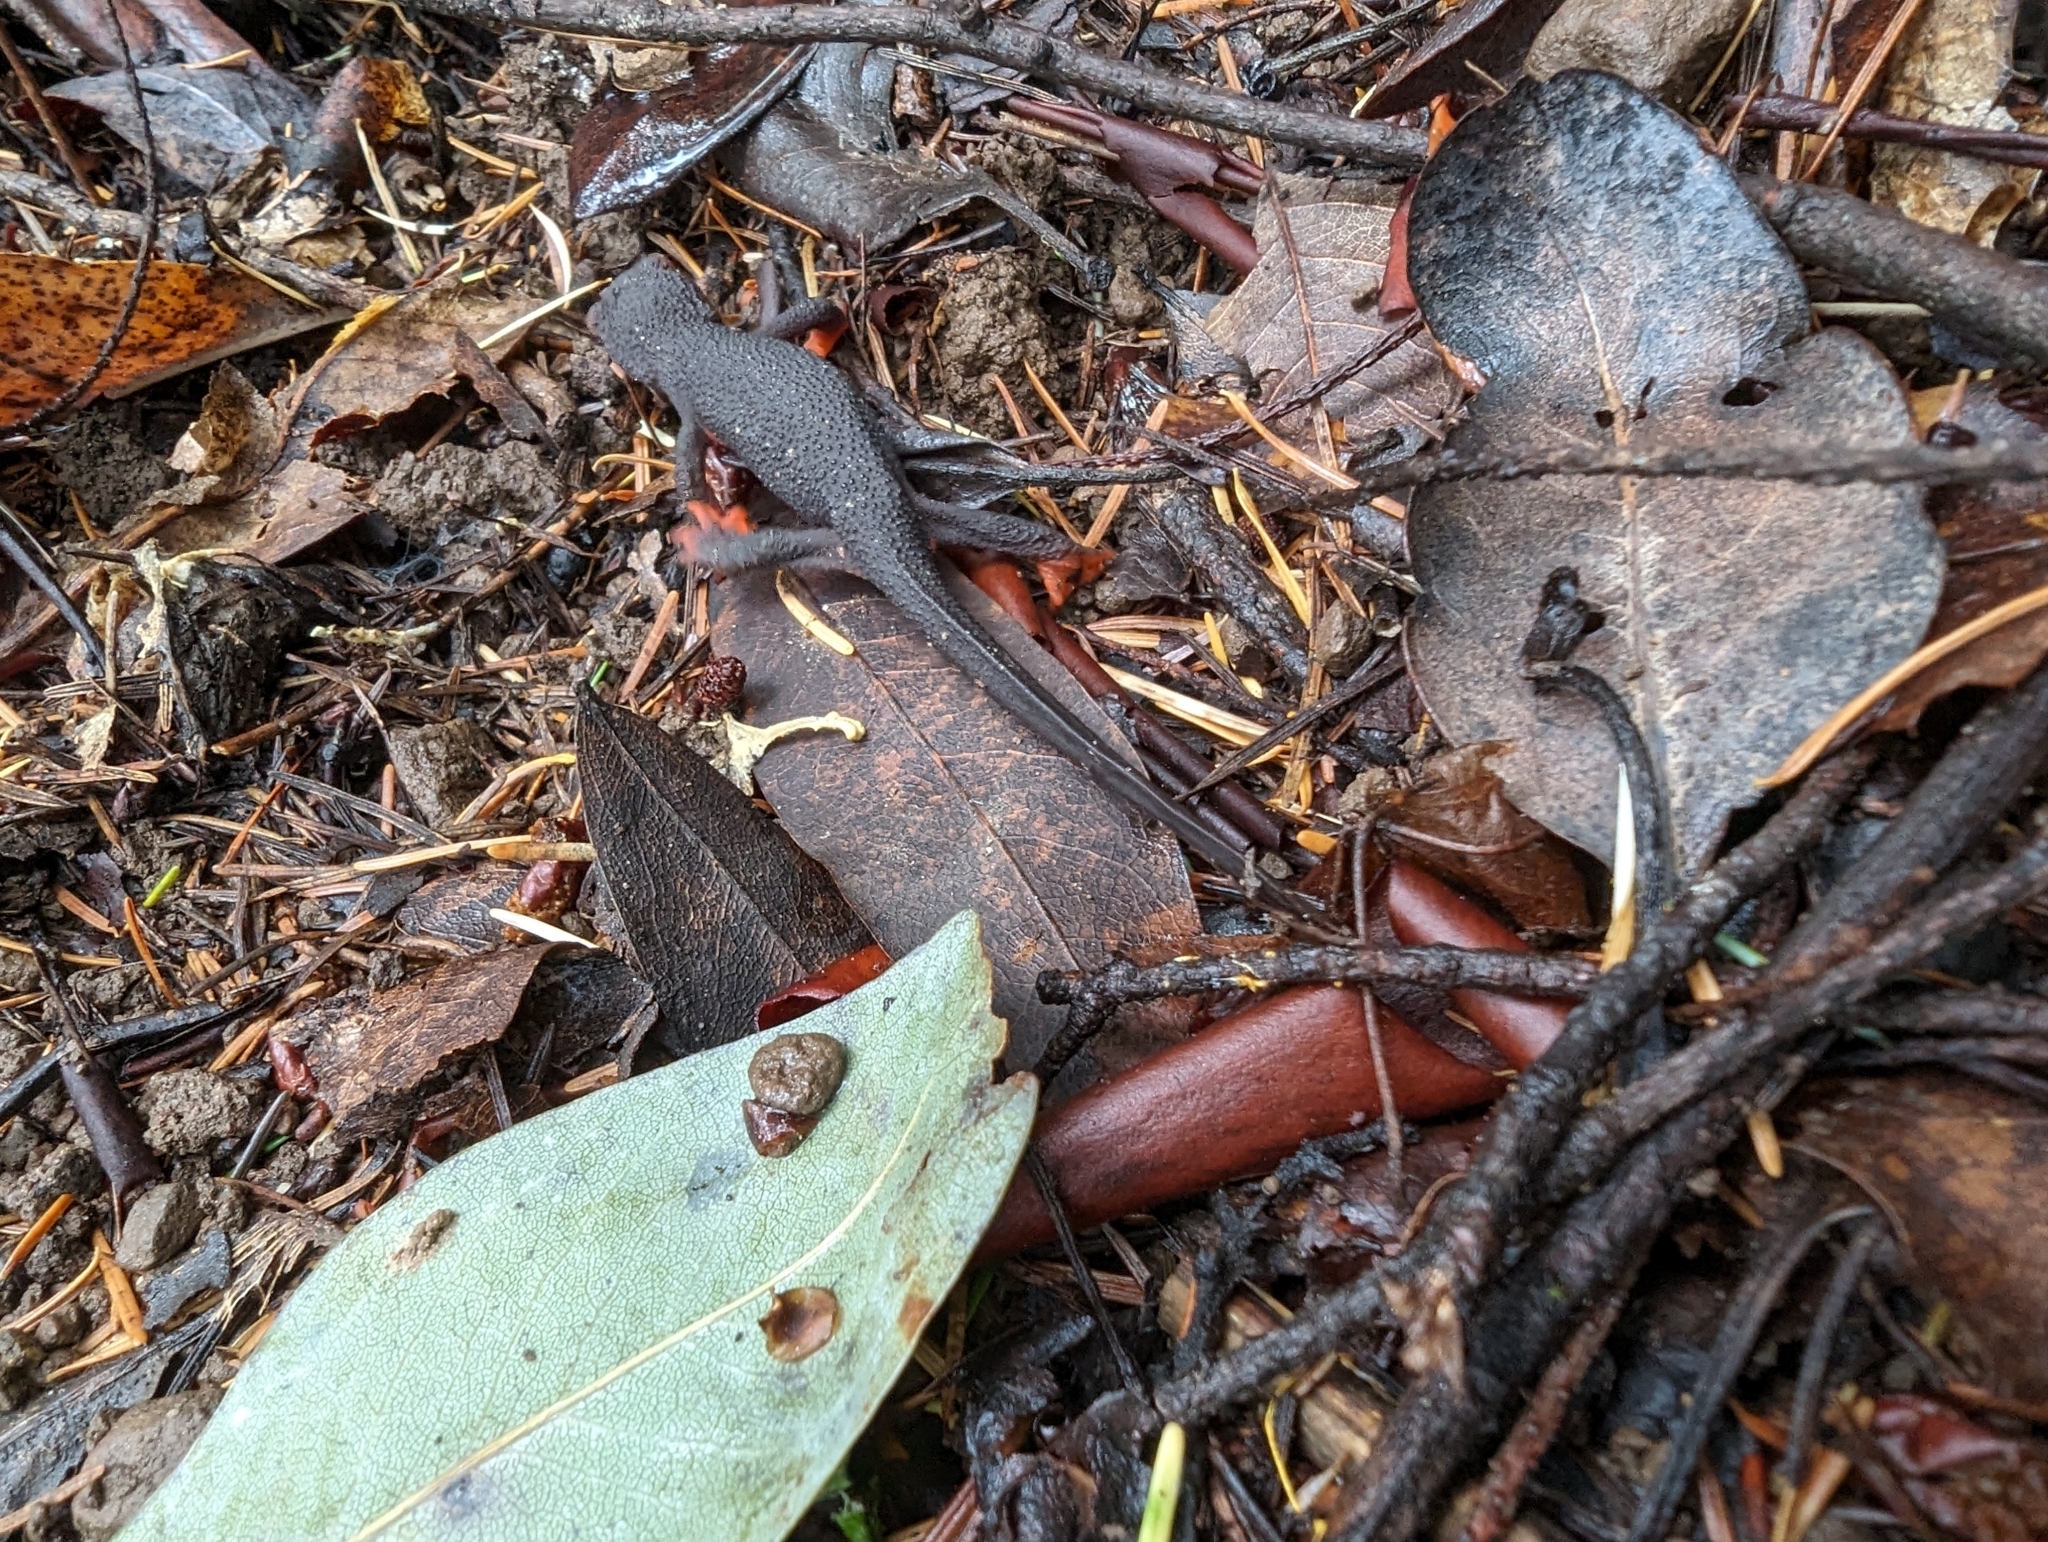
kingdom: Animalia
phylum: Chordata
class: Amphibia
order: Caudata
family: Salamandridae
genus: Taricha
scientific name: Taricha rivularis
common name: Red-bellied newt
